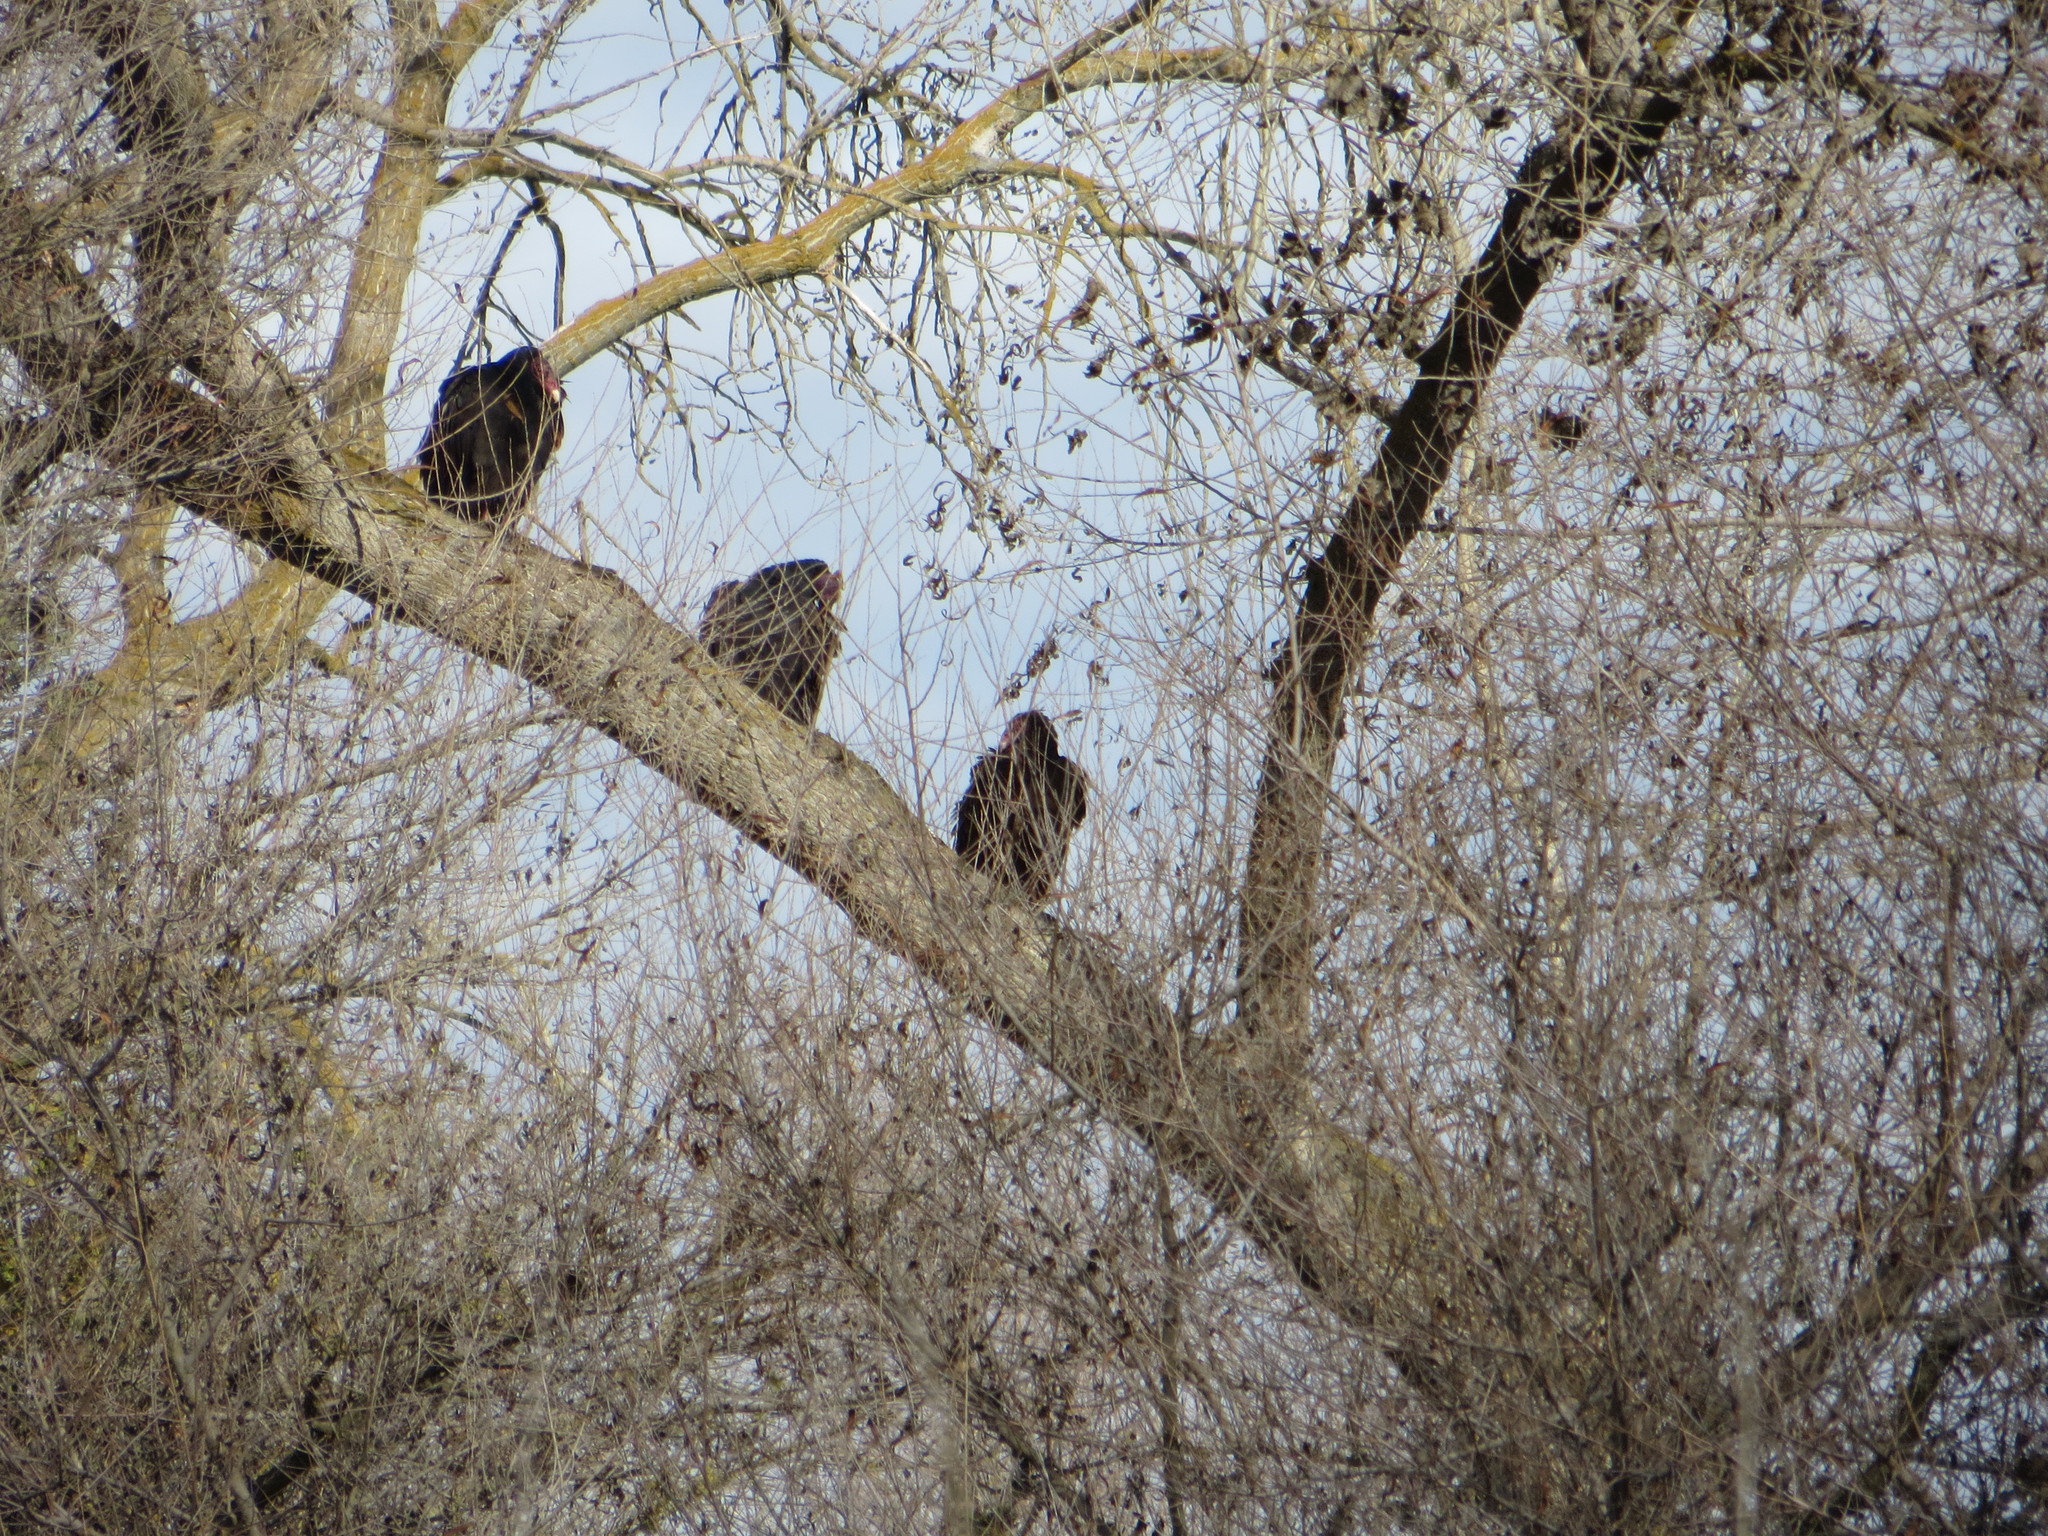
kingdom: Animalia
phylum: Chordata
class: Aves
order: Accipitriformes
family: Cathartidae
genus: Cathartes
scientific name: Cathartes aura
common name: Turkey vulture
